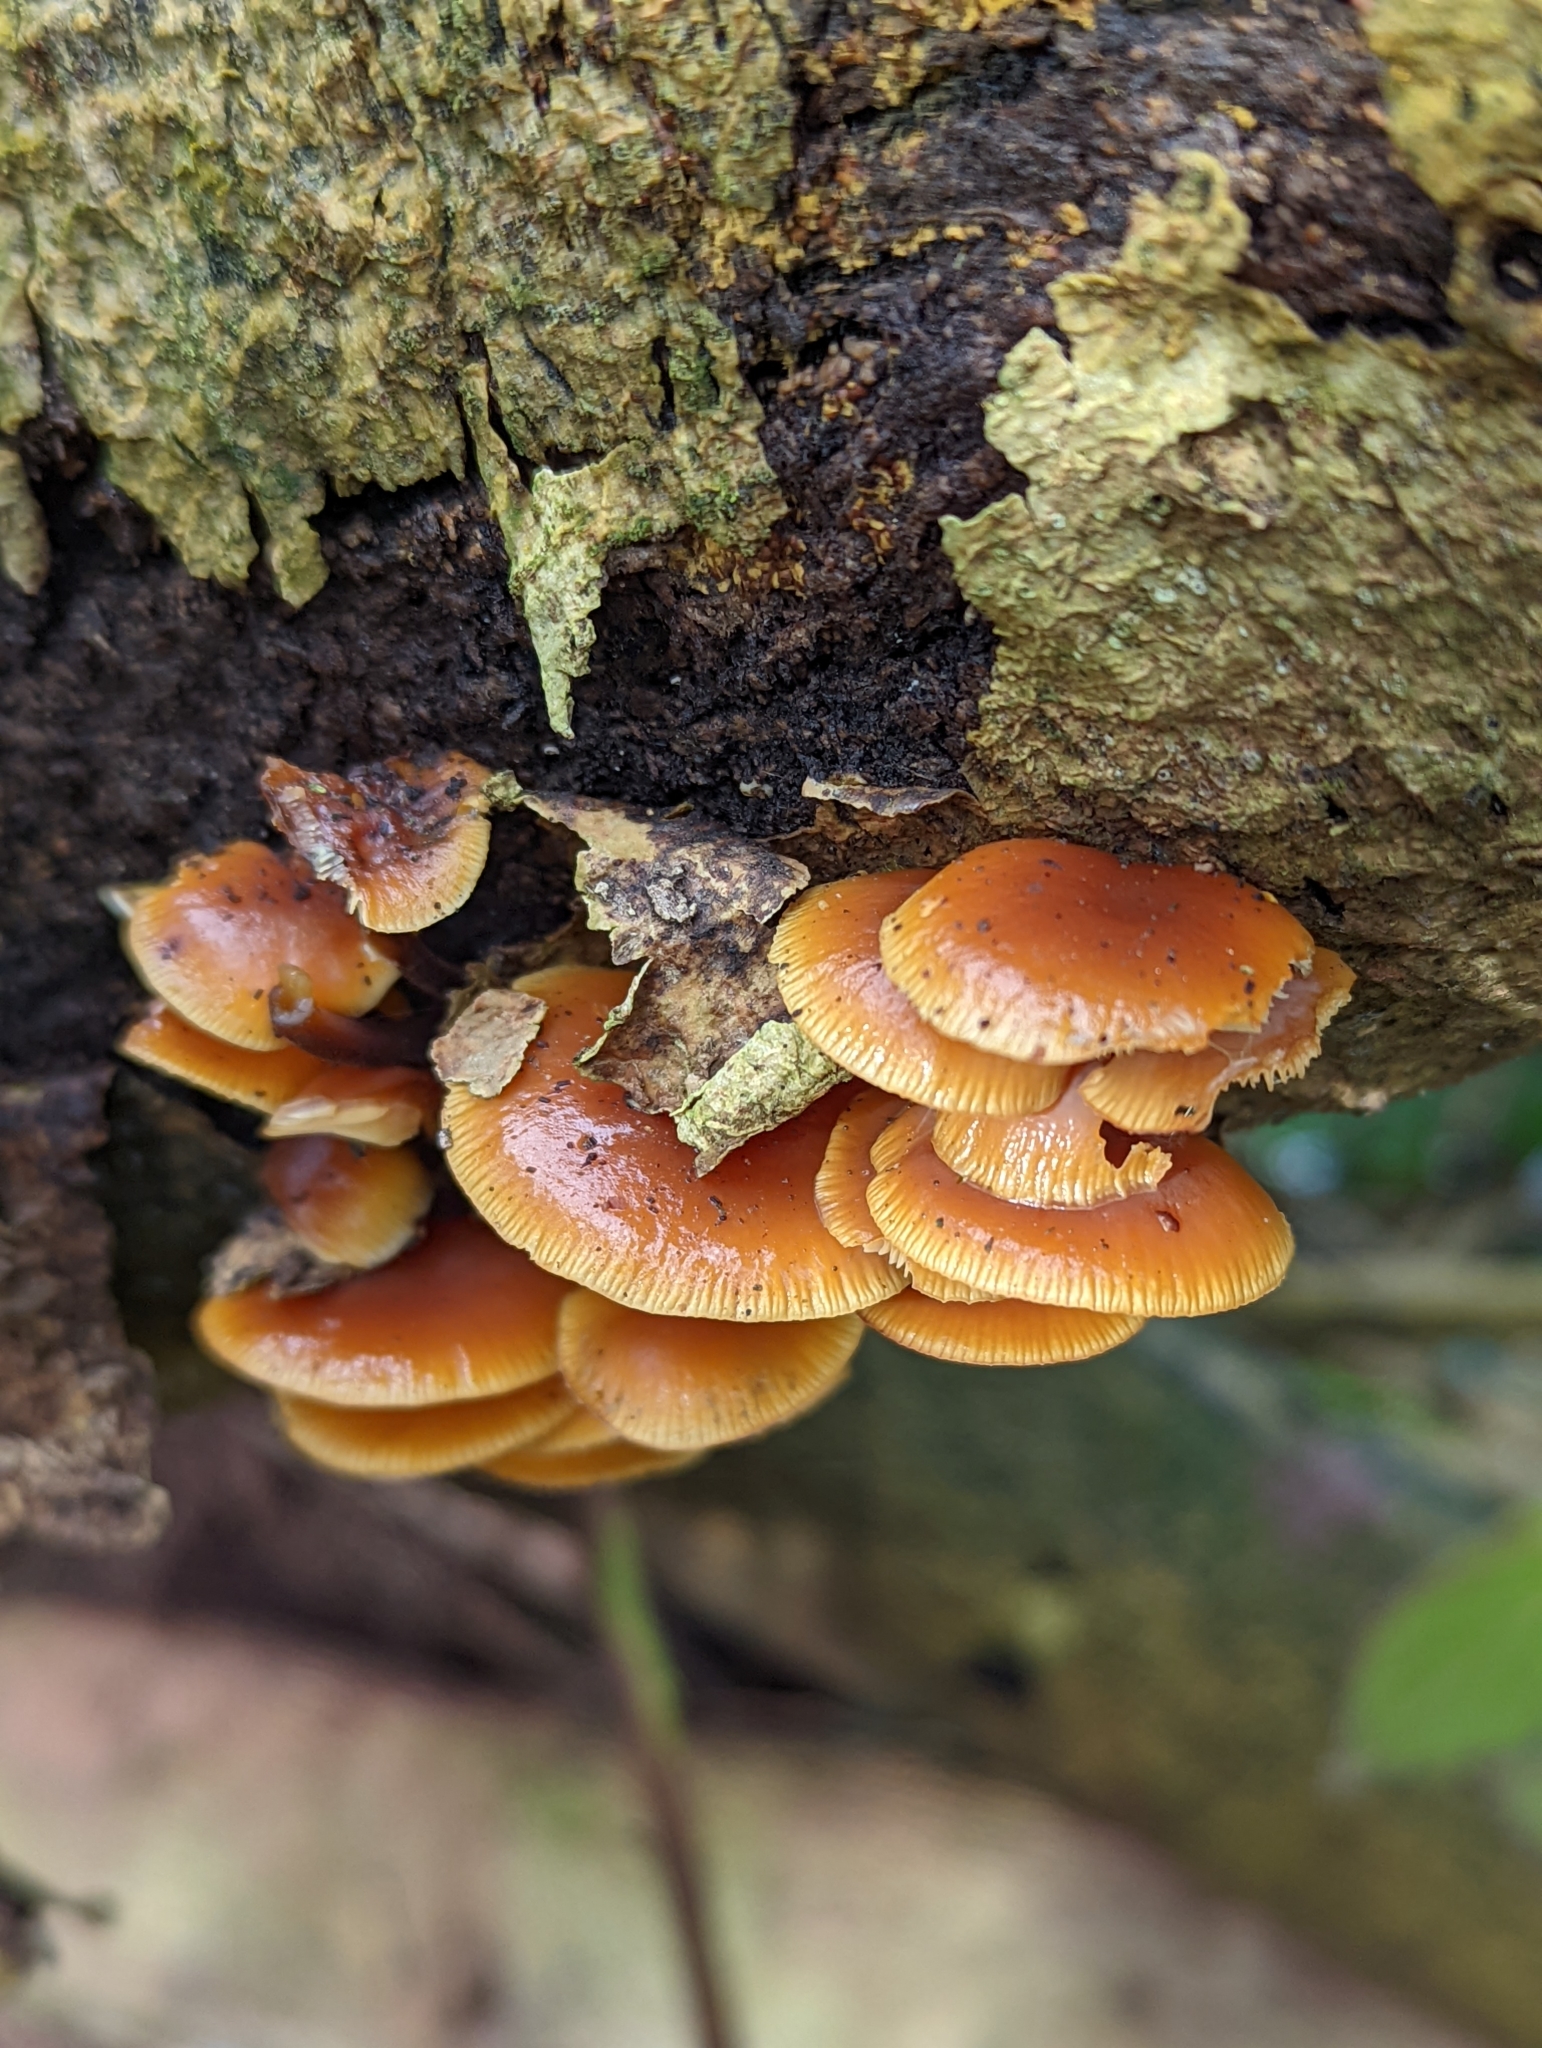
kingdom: Fungi
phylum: Basidiomycota
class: Agaricomycetes
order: Agaricales
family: Physalacriaceae
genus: Flammulina
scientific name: Flammulina
